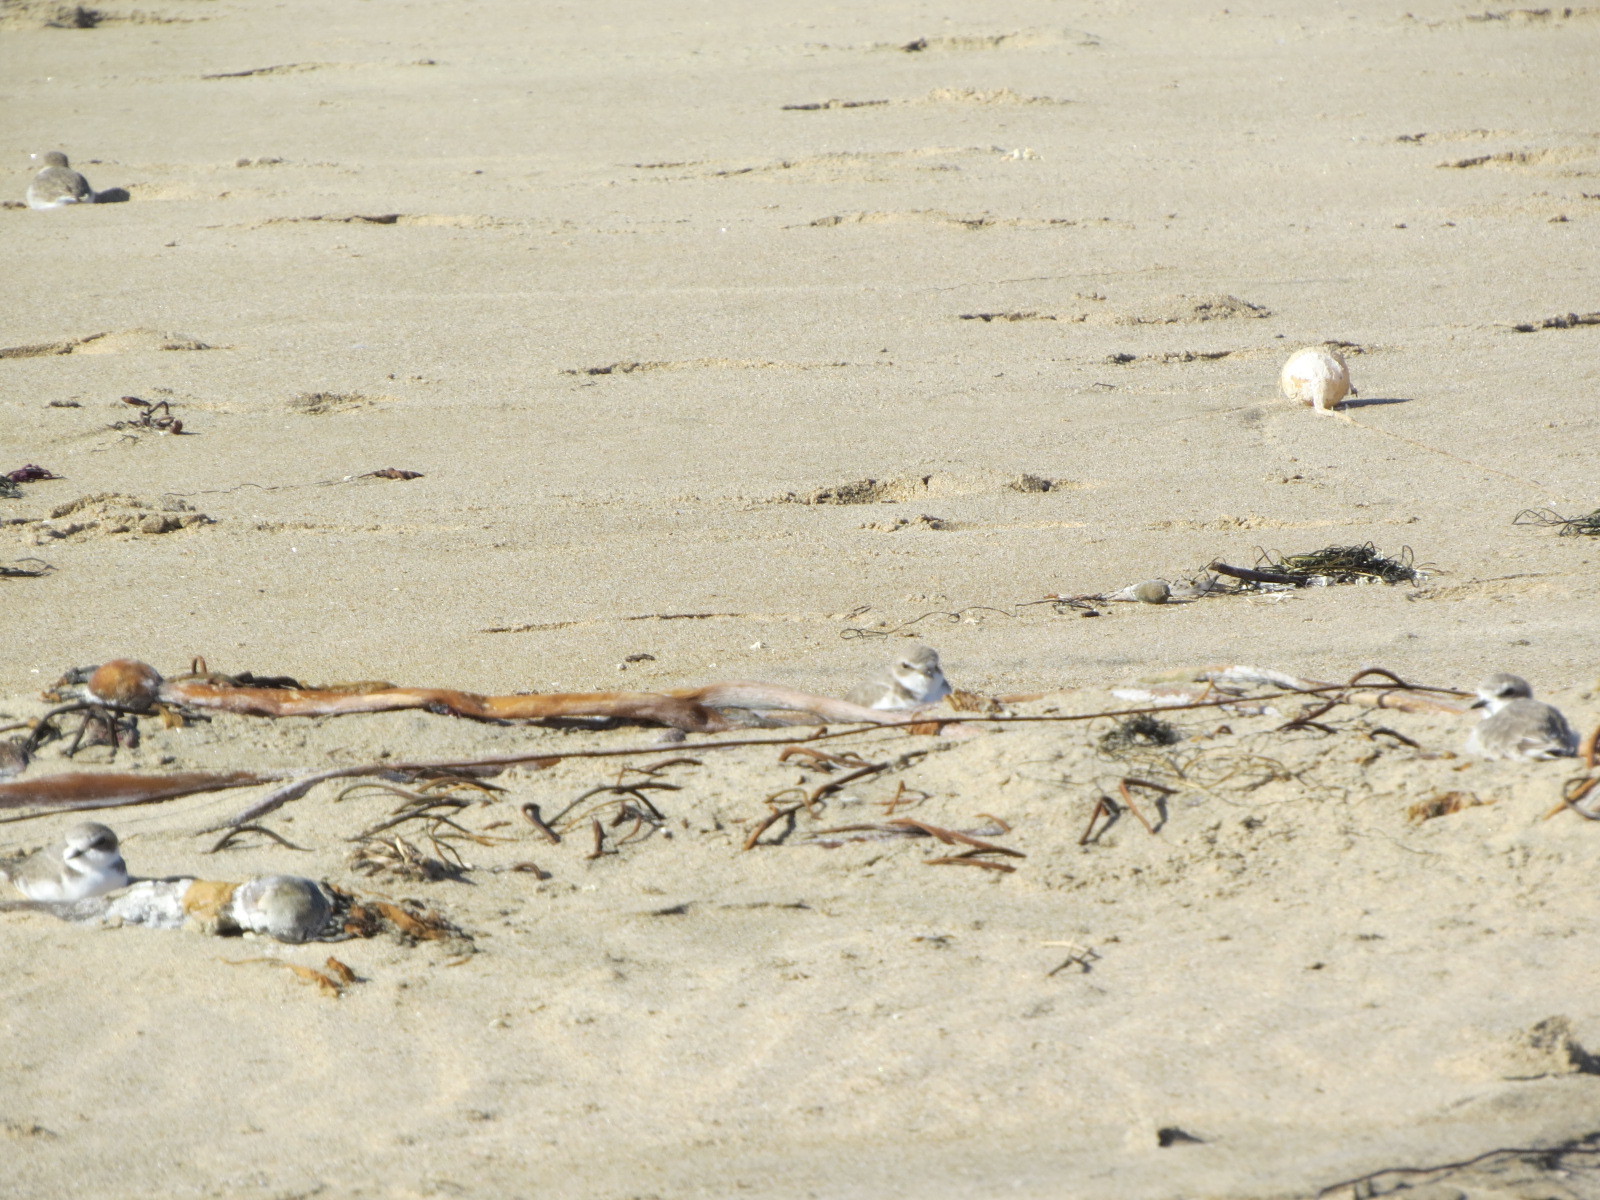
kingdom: Animalia
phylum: Chordata
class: Aves
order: Charadriiformes
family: Charadriidae
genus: Anarhynchus
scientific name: Anarhynchus
